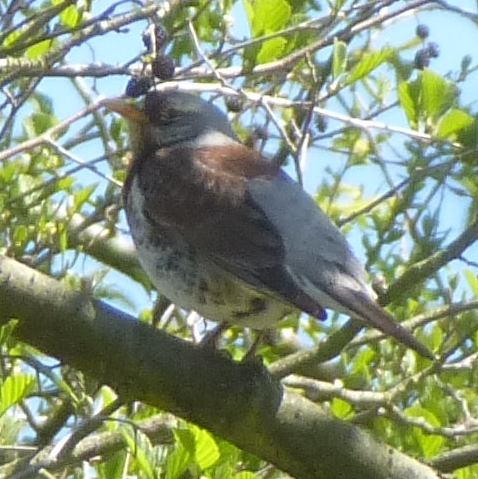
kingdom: Animalia
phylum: Chordata
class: Aves
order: Passeriformes
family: Turdidae
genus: Turdus
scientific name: Turdus pilaris
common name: Fieldfare
